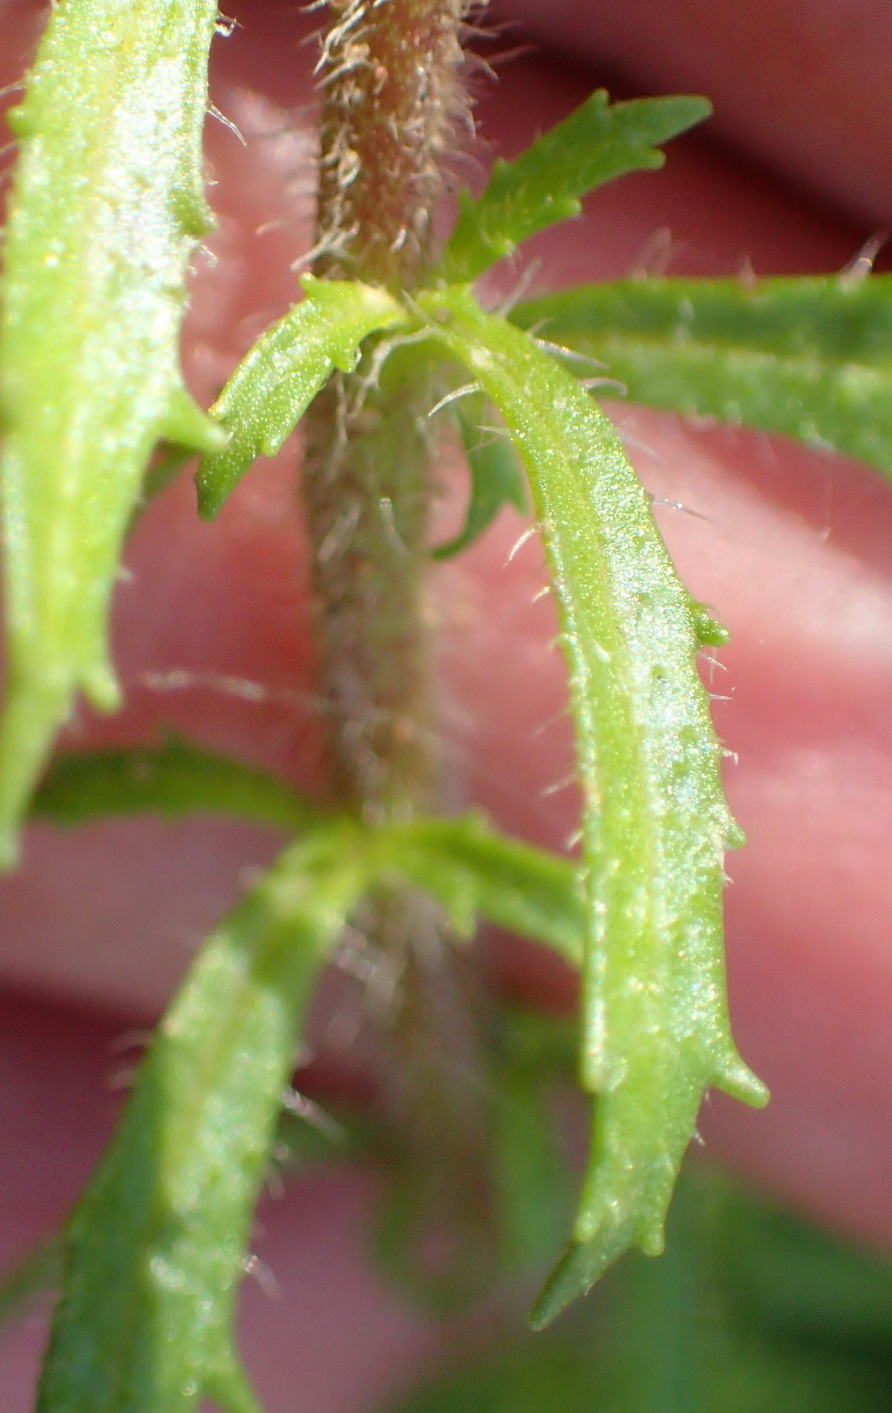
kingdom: Plantae
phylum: Tracheophyta
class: Magnoliopsida
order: Lamiales
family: Scrophulariaceae
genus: Dischisma
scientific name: Dischisma ciliatum
